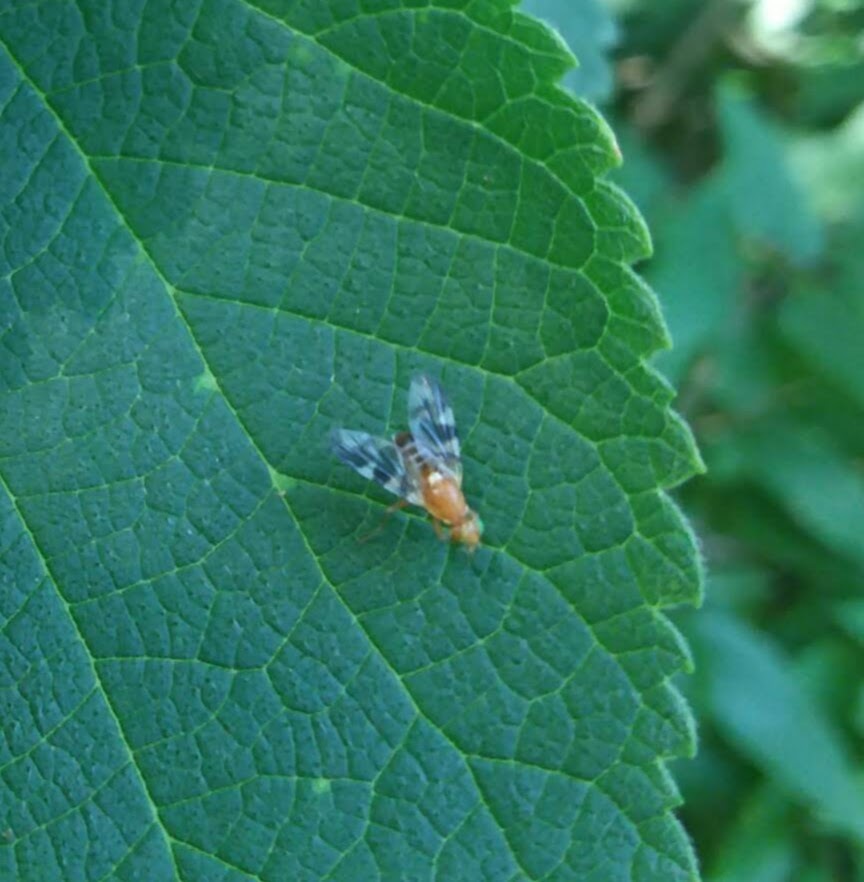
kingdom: Animalia
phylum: Arthropoda
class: Insecta
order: Diptera
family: Tephritidae
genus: Rhagoletis
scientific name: Rhagoletis suavis
